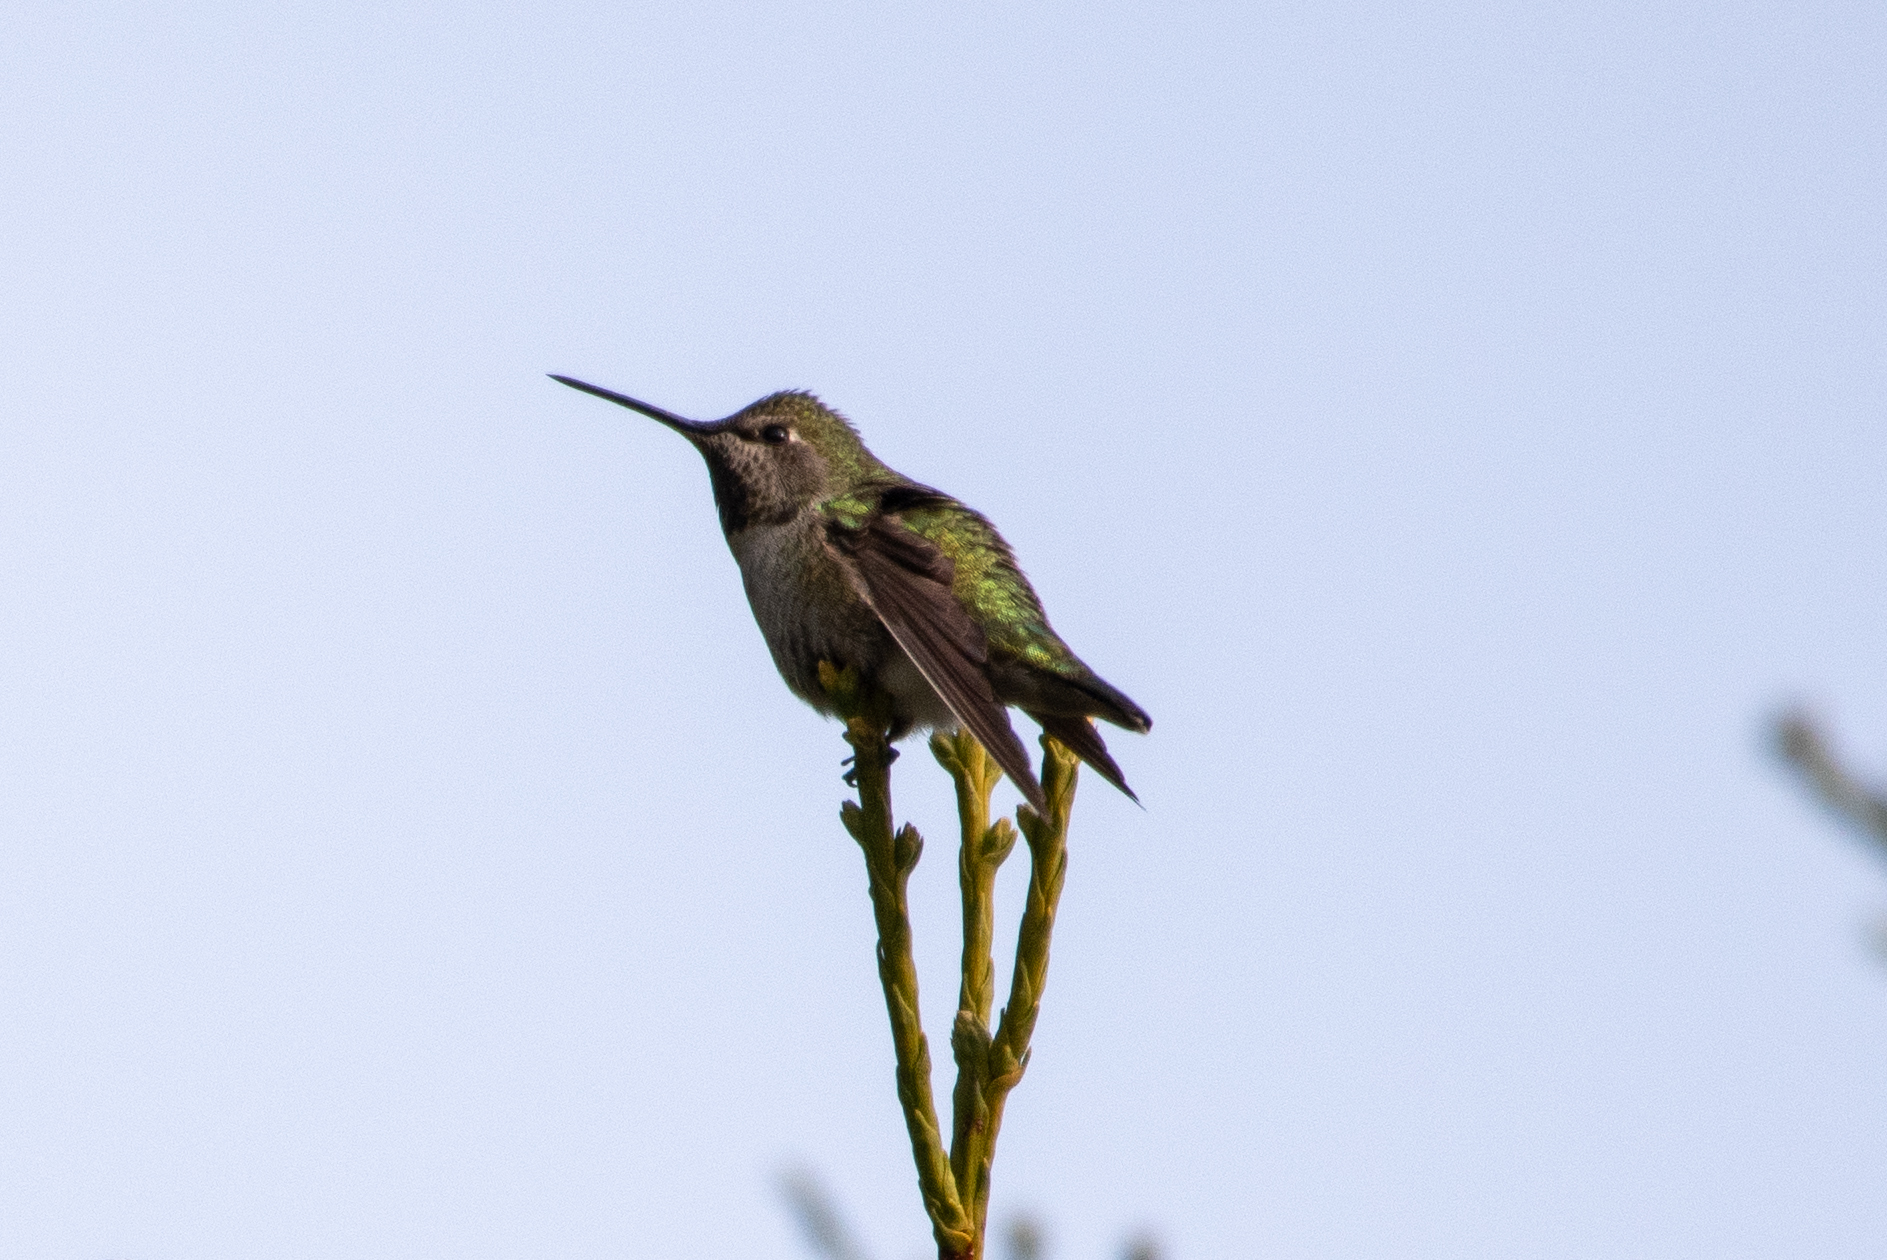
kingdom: Animalia
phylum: Chordata
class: Aves
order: Apodiformes
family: Trochilidae
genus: Calypte
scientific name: Calypte anna
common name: Anna's hummingbird
